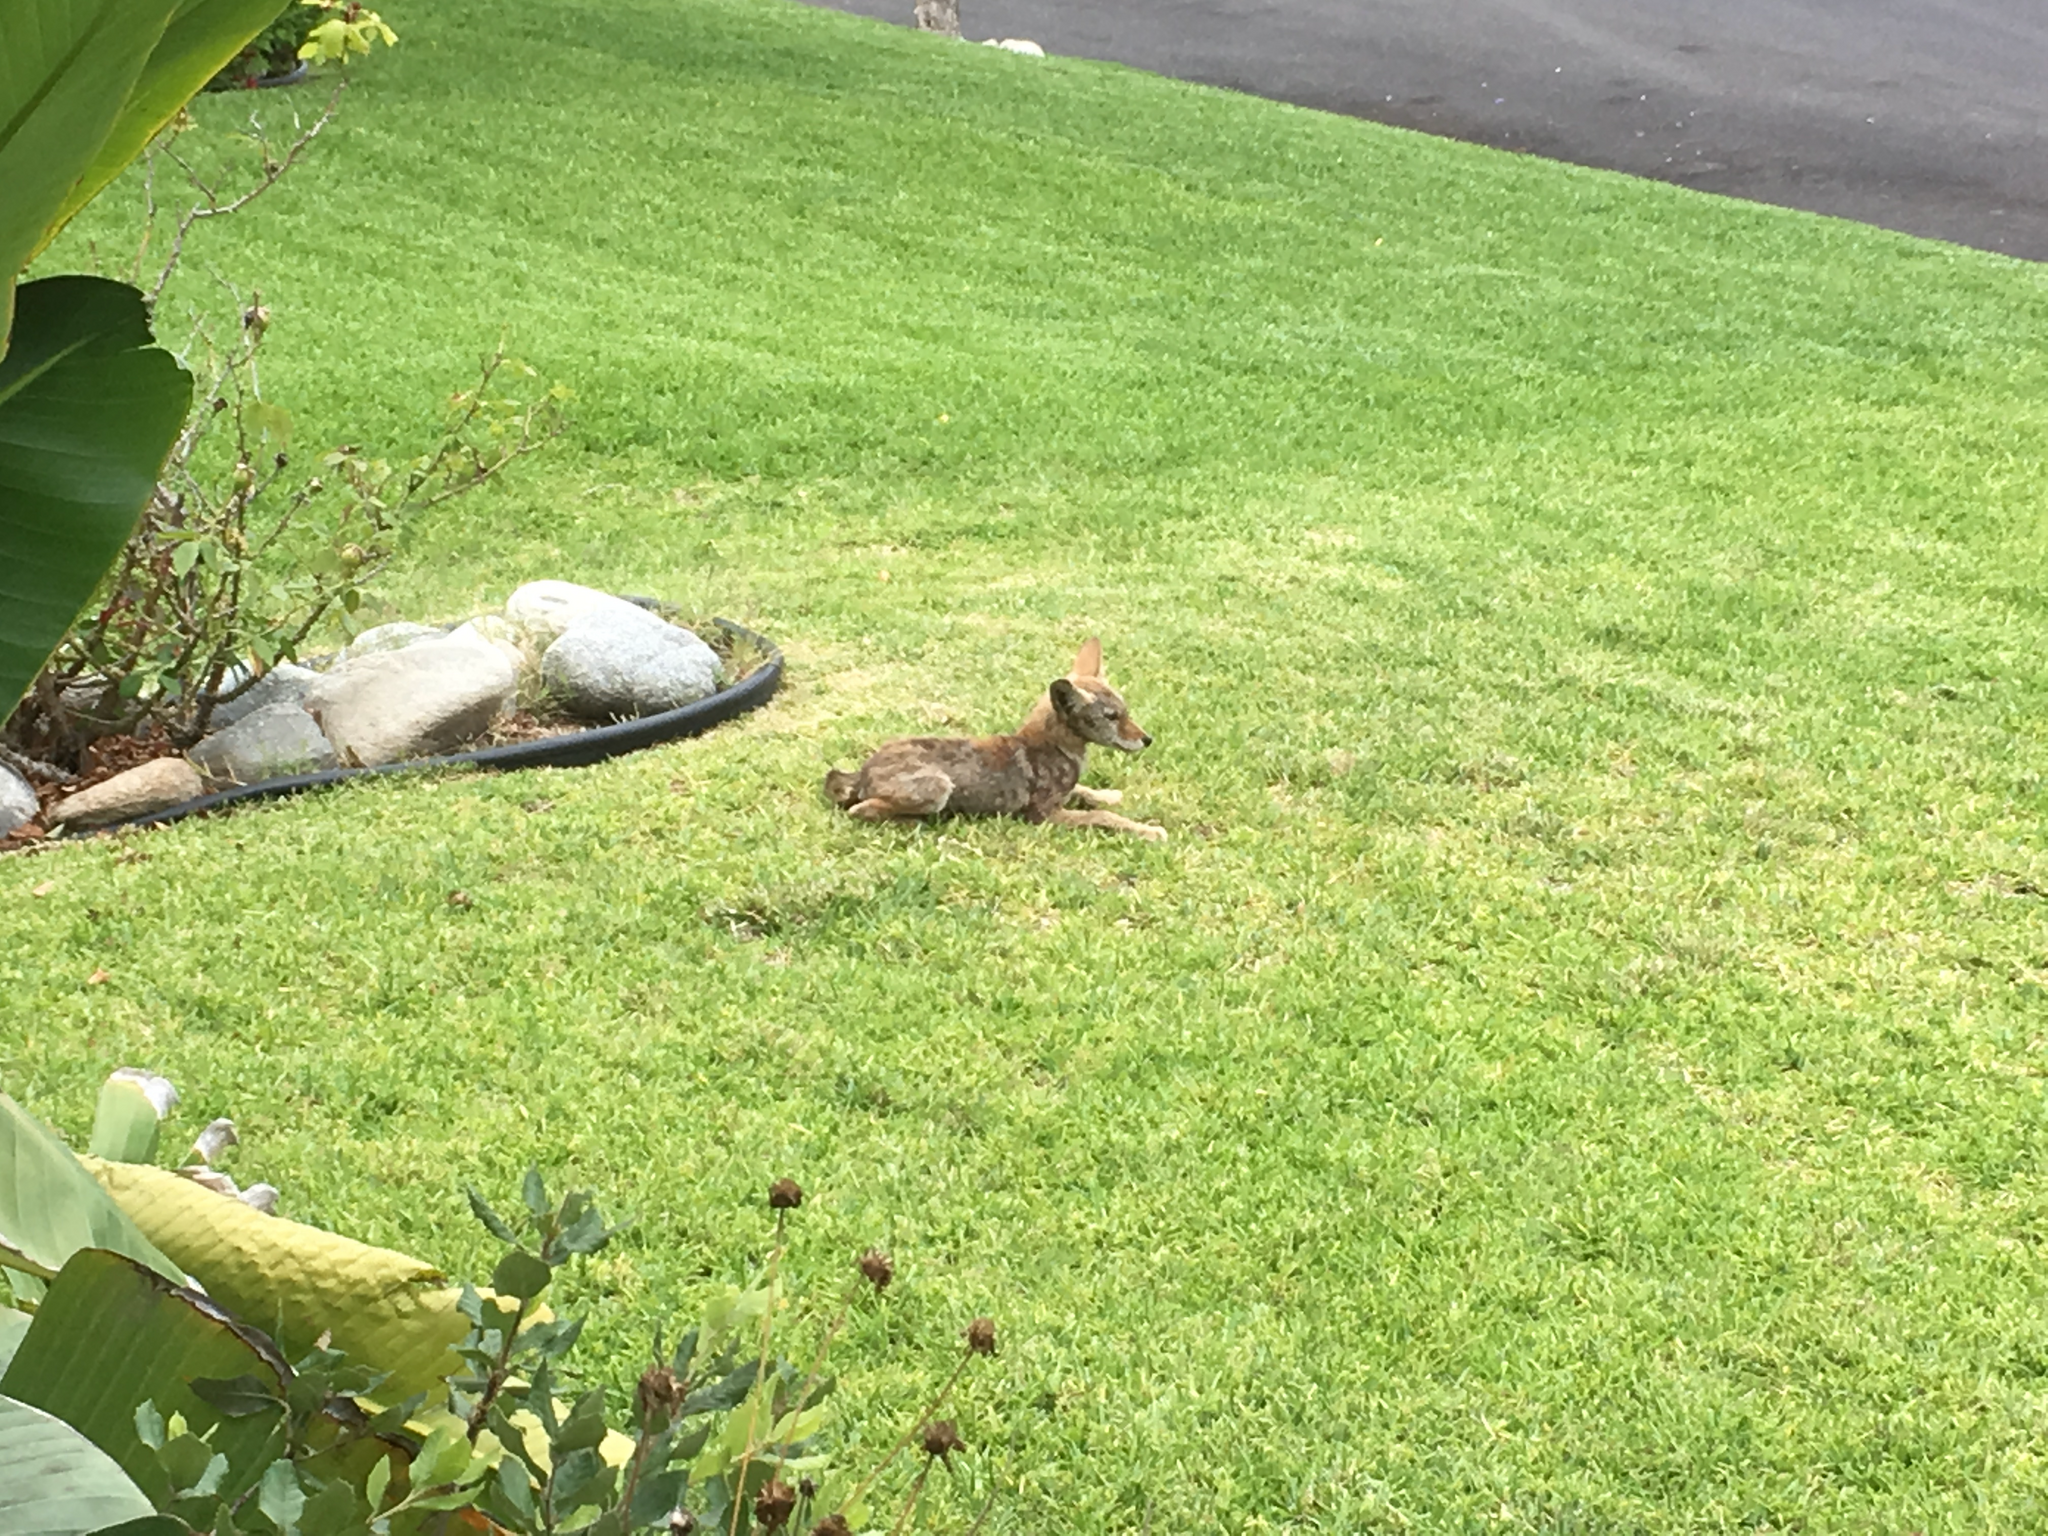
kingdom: Animalia
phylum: Chordata
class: Mammalia
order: Carnivora
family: Canidae
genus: Canis
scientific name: Canis latrans
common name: Coyote
